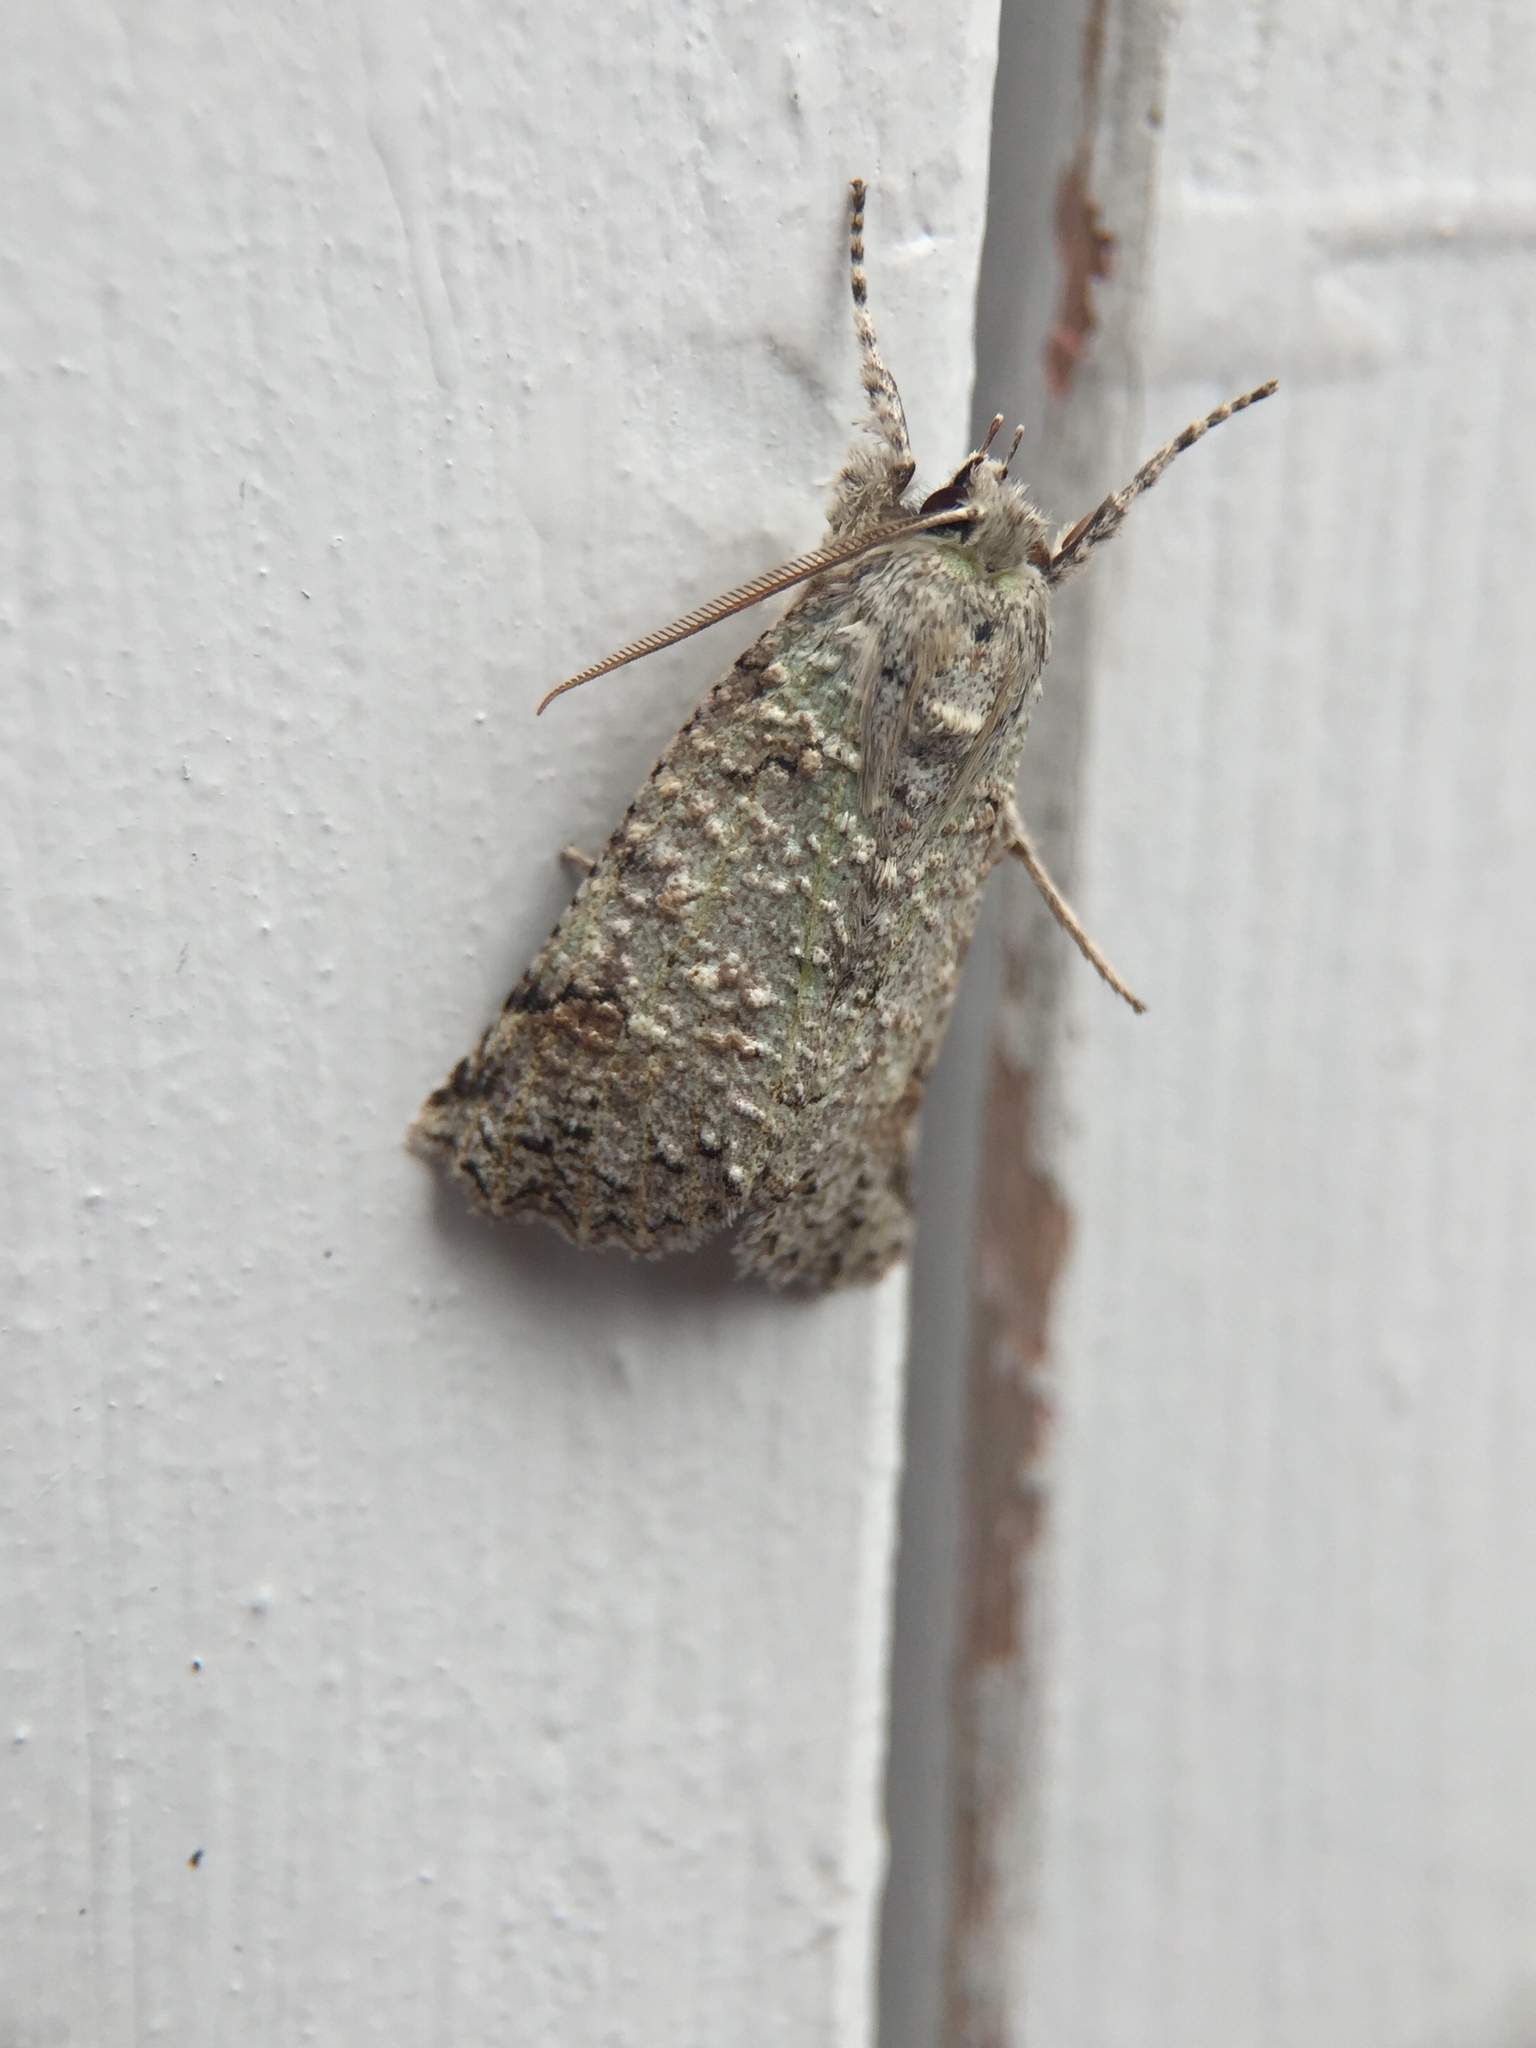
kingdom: Animalia
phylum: Arthropoda
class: Insecta
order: Lepidoptera
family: Geometridae
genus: Declana
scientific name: Declana floccosa
